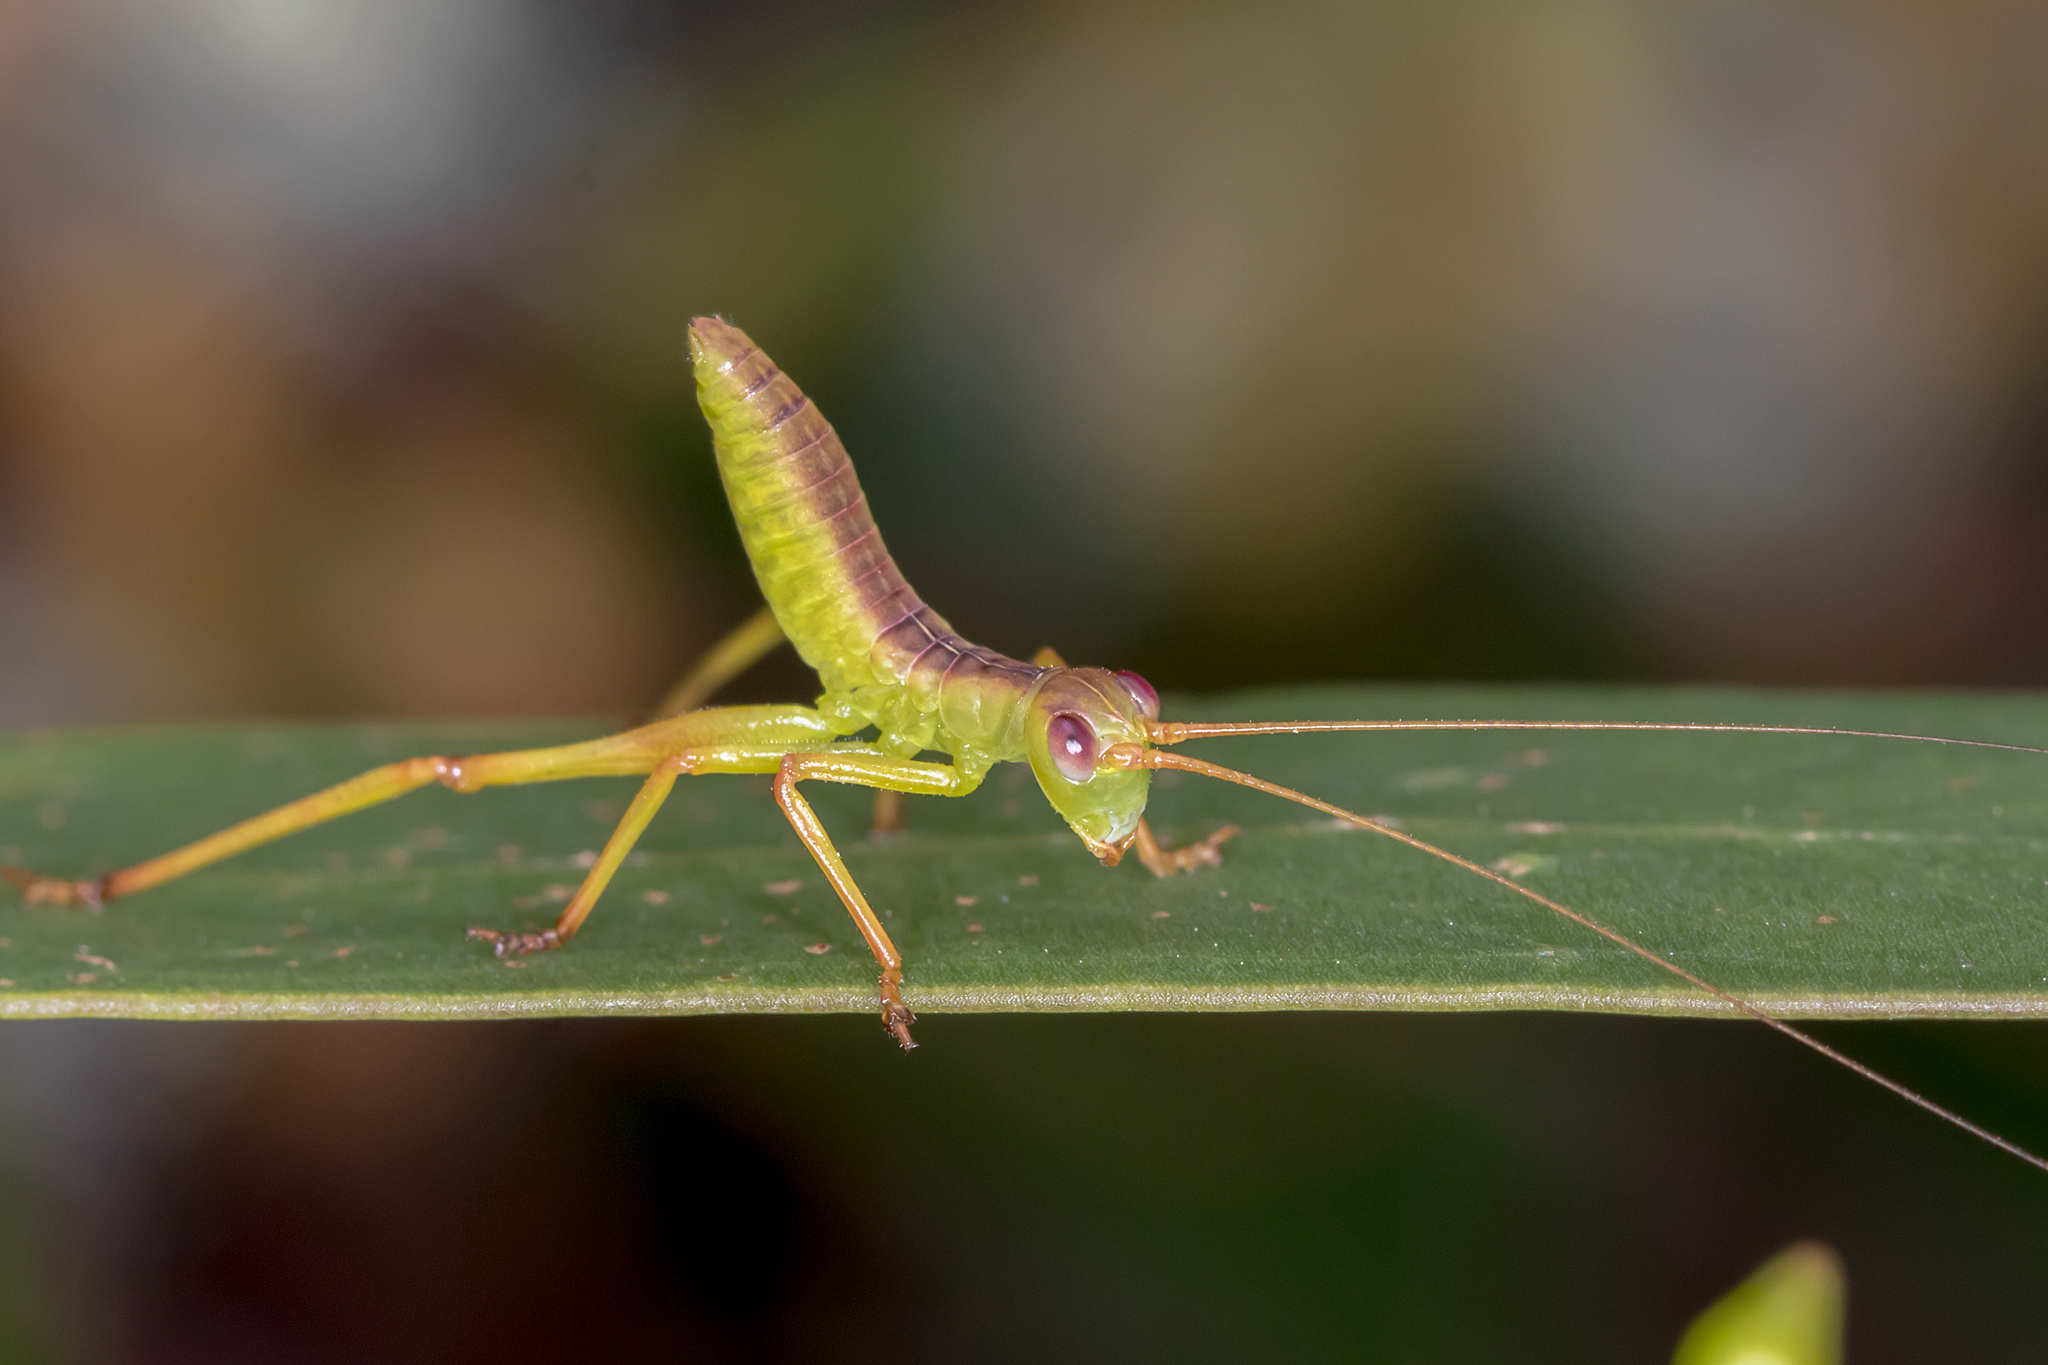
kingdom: Animalia
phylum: Arthropoda
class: Insecta
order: Orthoptera
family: Tettigoniidae
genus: Torbia
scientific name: Torbia viridissima
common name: Non-predaceous gum leaf katydid
